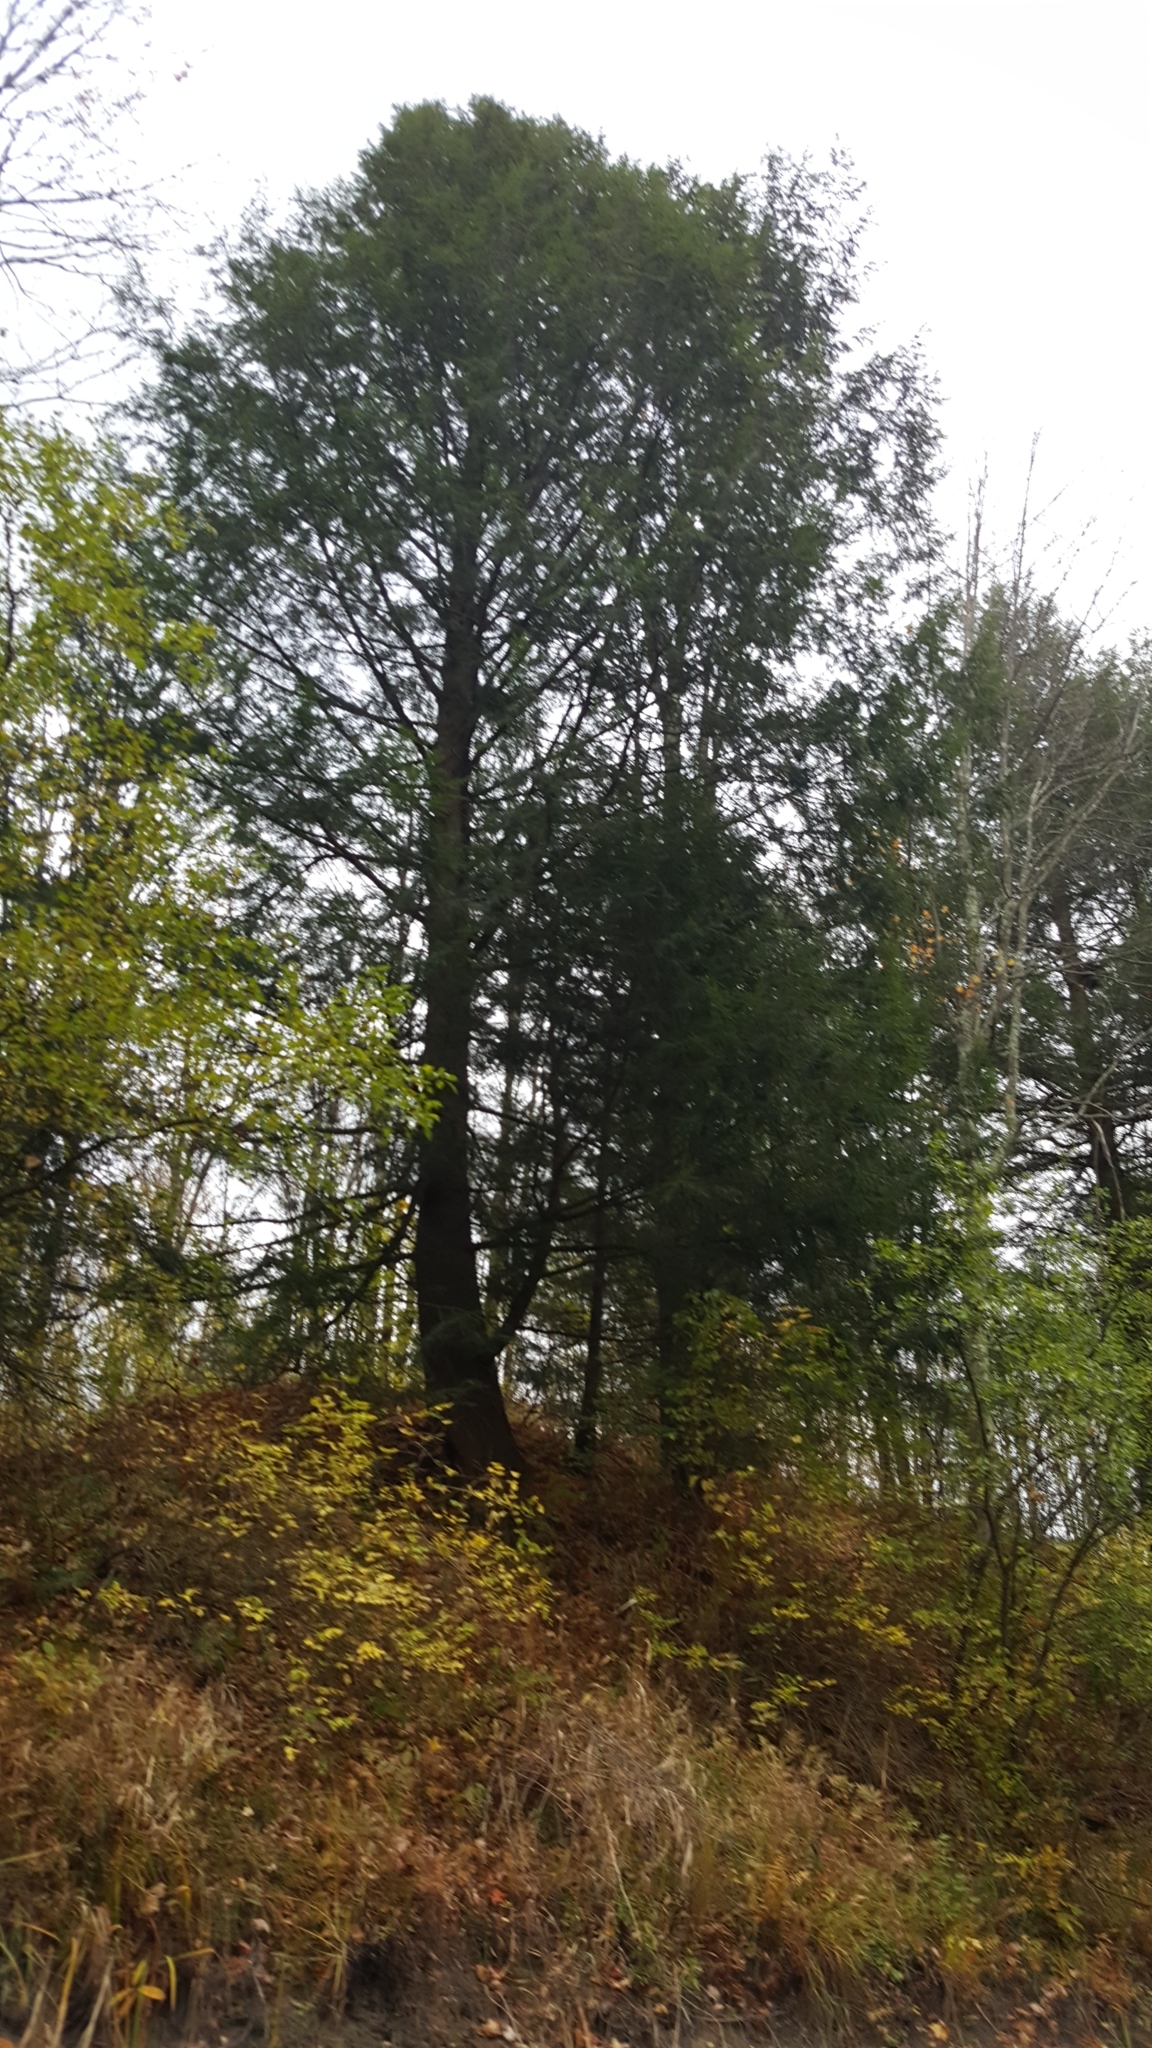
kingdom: Plantae
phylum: Tracheophyta
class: Pinopsida
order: Pinales
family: Pinaceae
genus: Tsuga
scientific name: Tsuga canadensis
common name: Eastern hemlock
